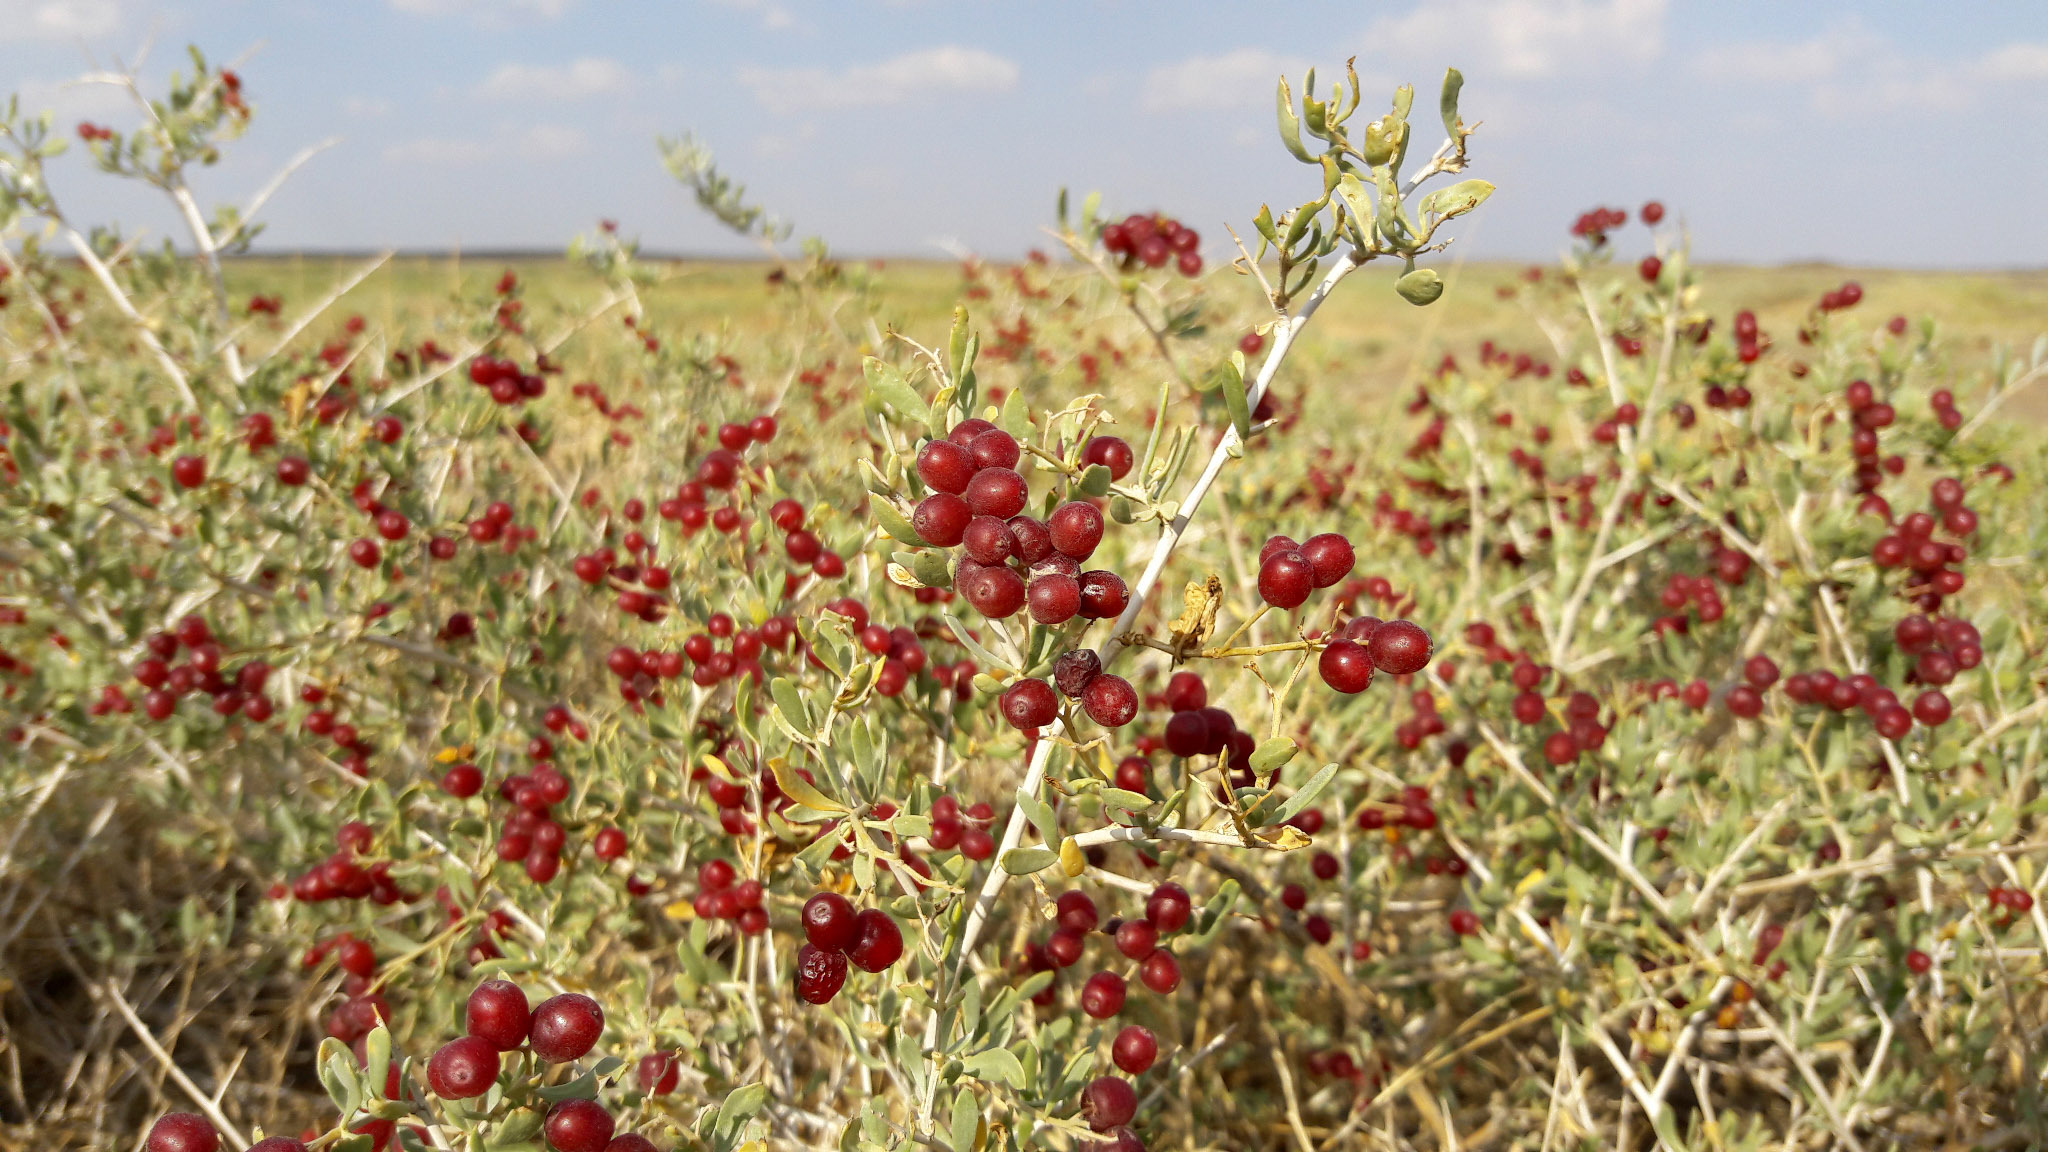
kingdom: Plantae
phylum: Tracheophyta
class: Magnoliopsida
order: Sapindales
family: Nitrariaceae
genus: Nitraria
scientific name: Nitraria roborowskii
